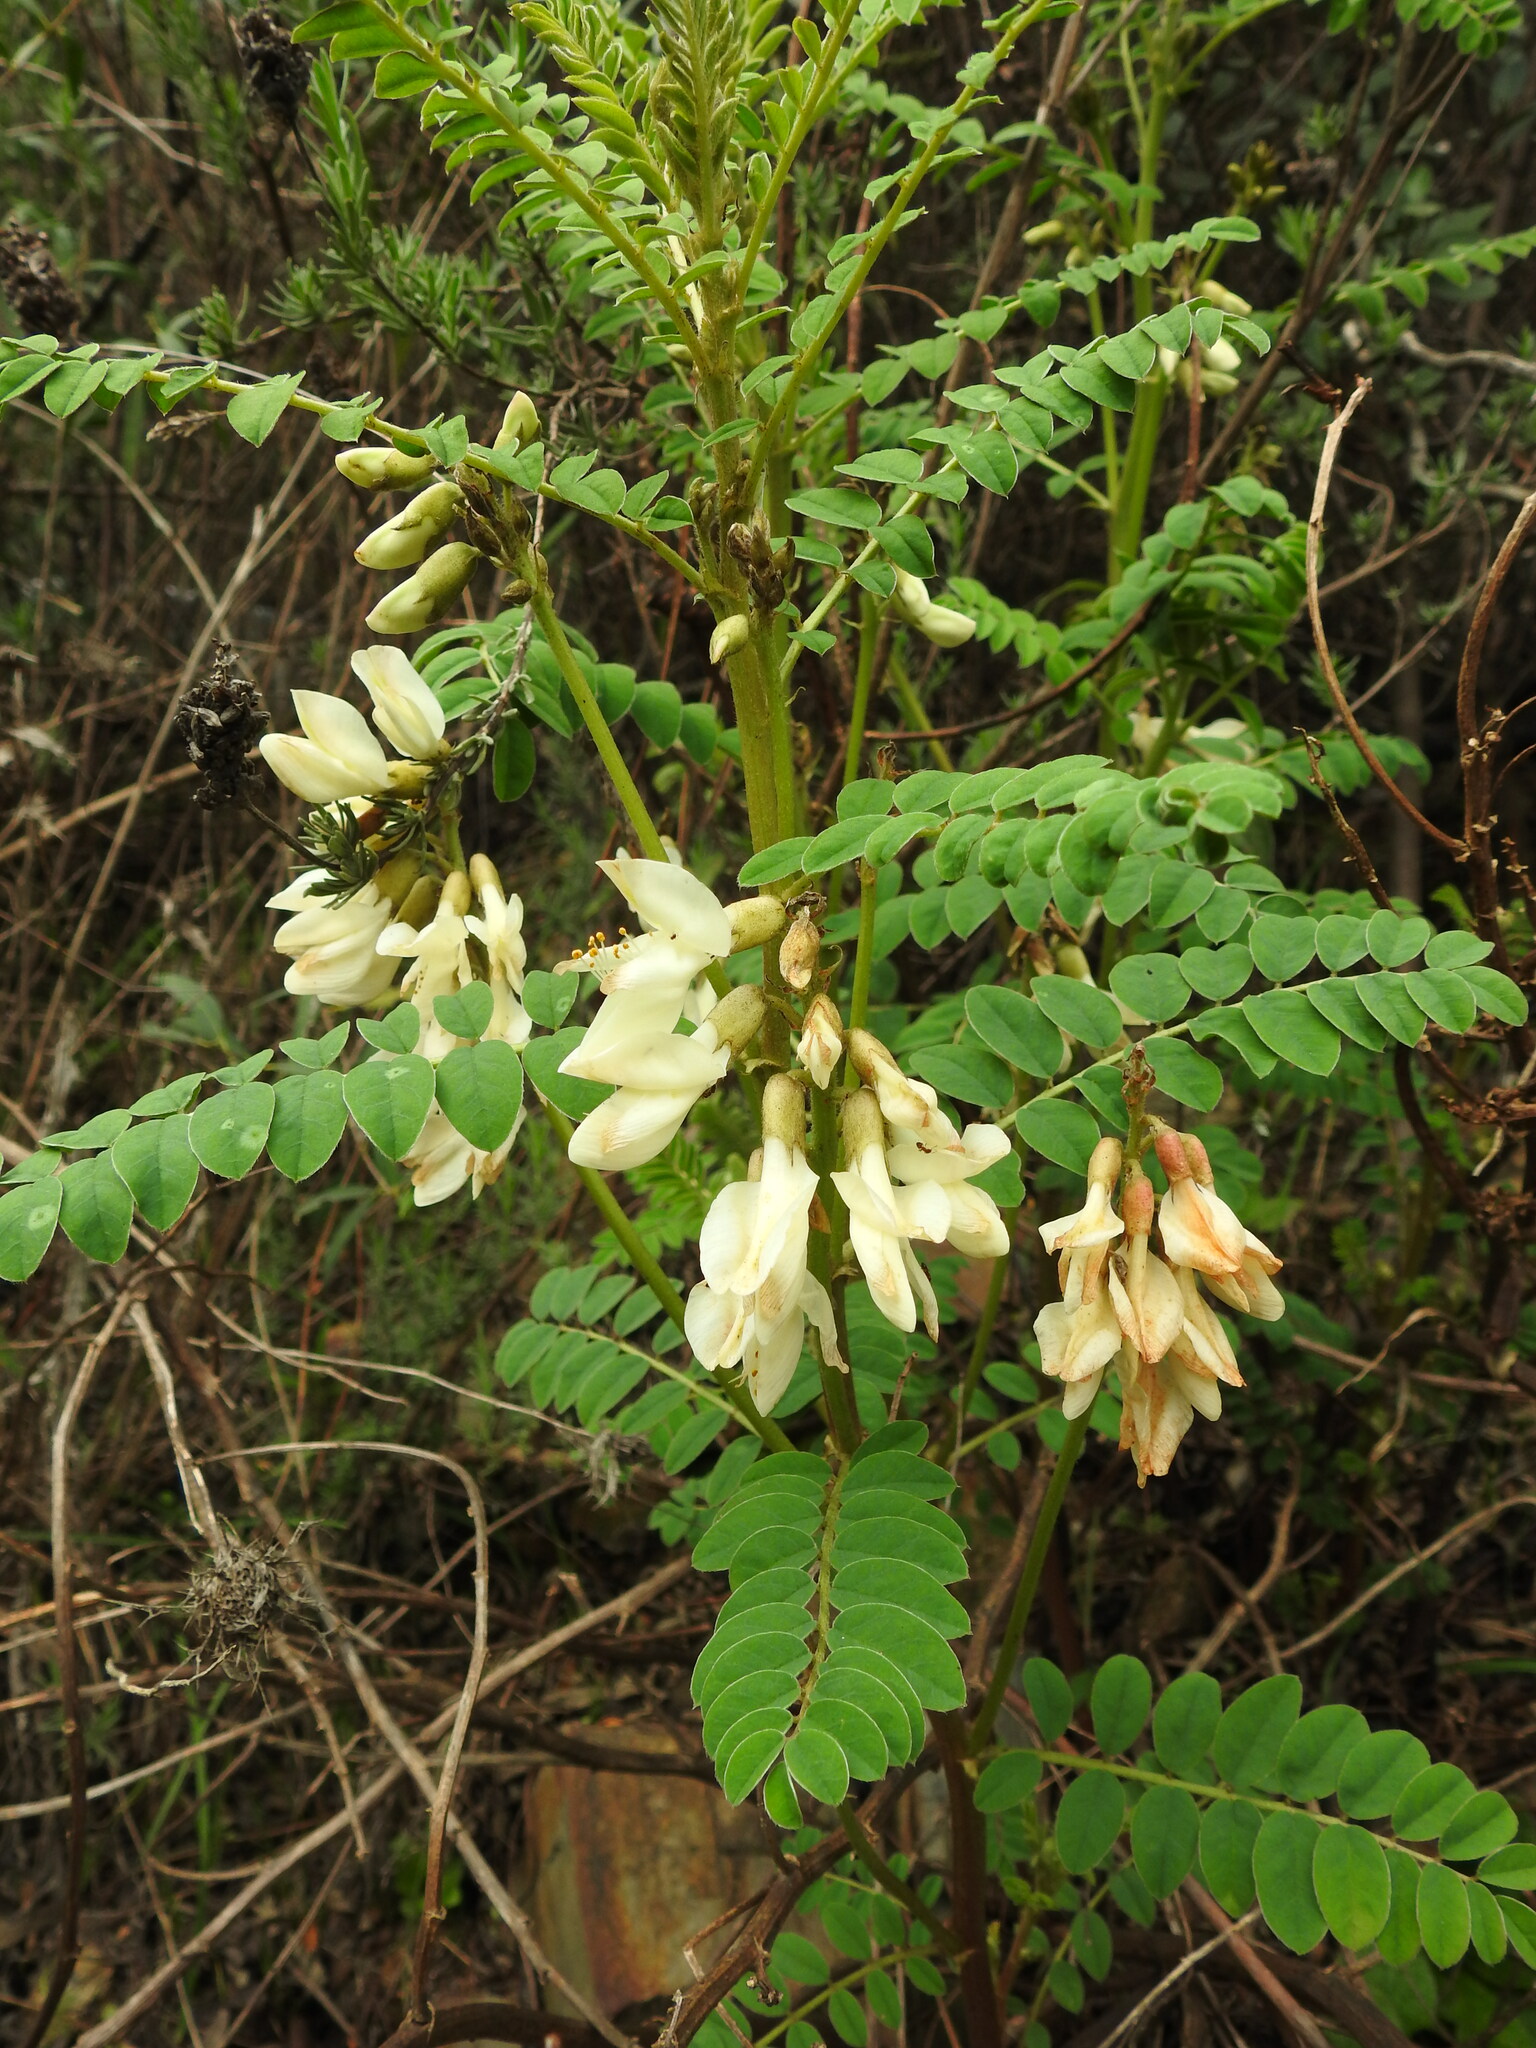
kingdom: Plantae
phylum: Tracheophyta
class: Magnoliopsida
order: Fabales
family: Fabaceae
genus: Erophaca
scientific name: Erophaca baetica
